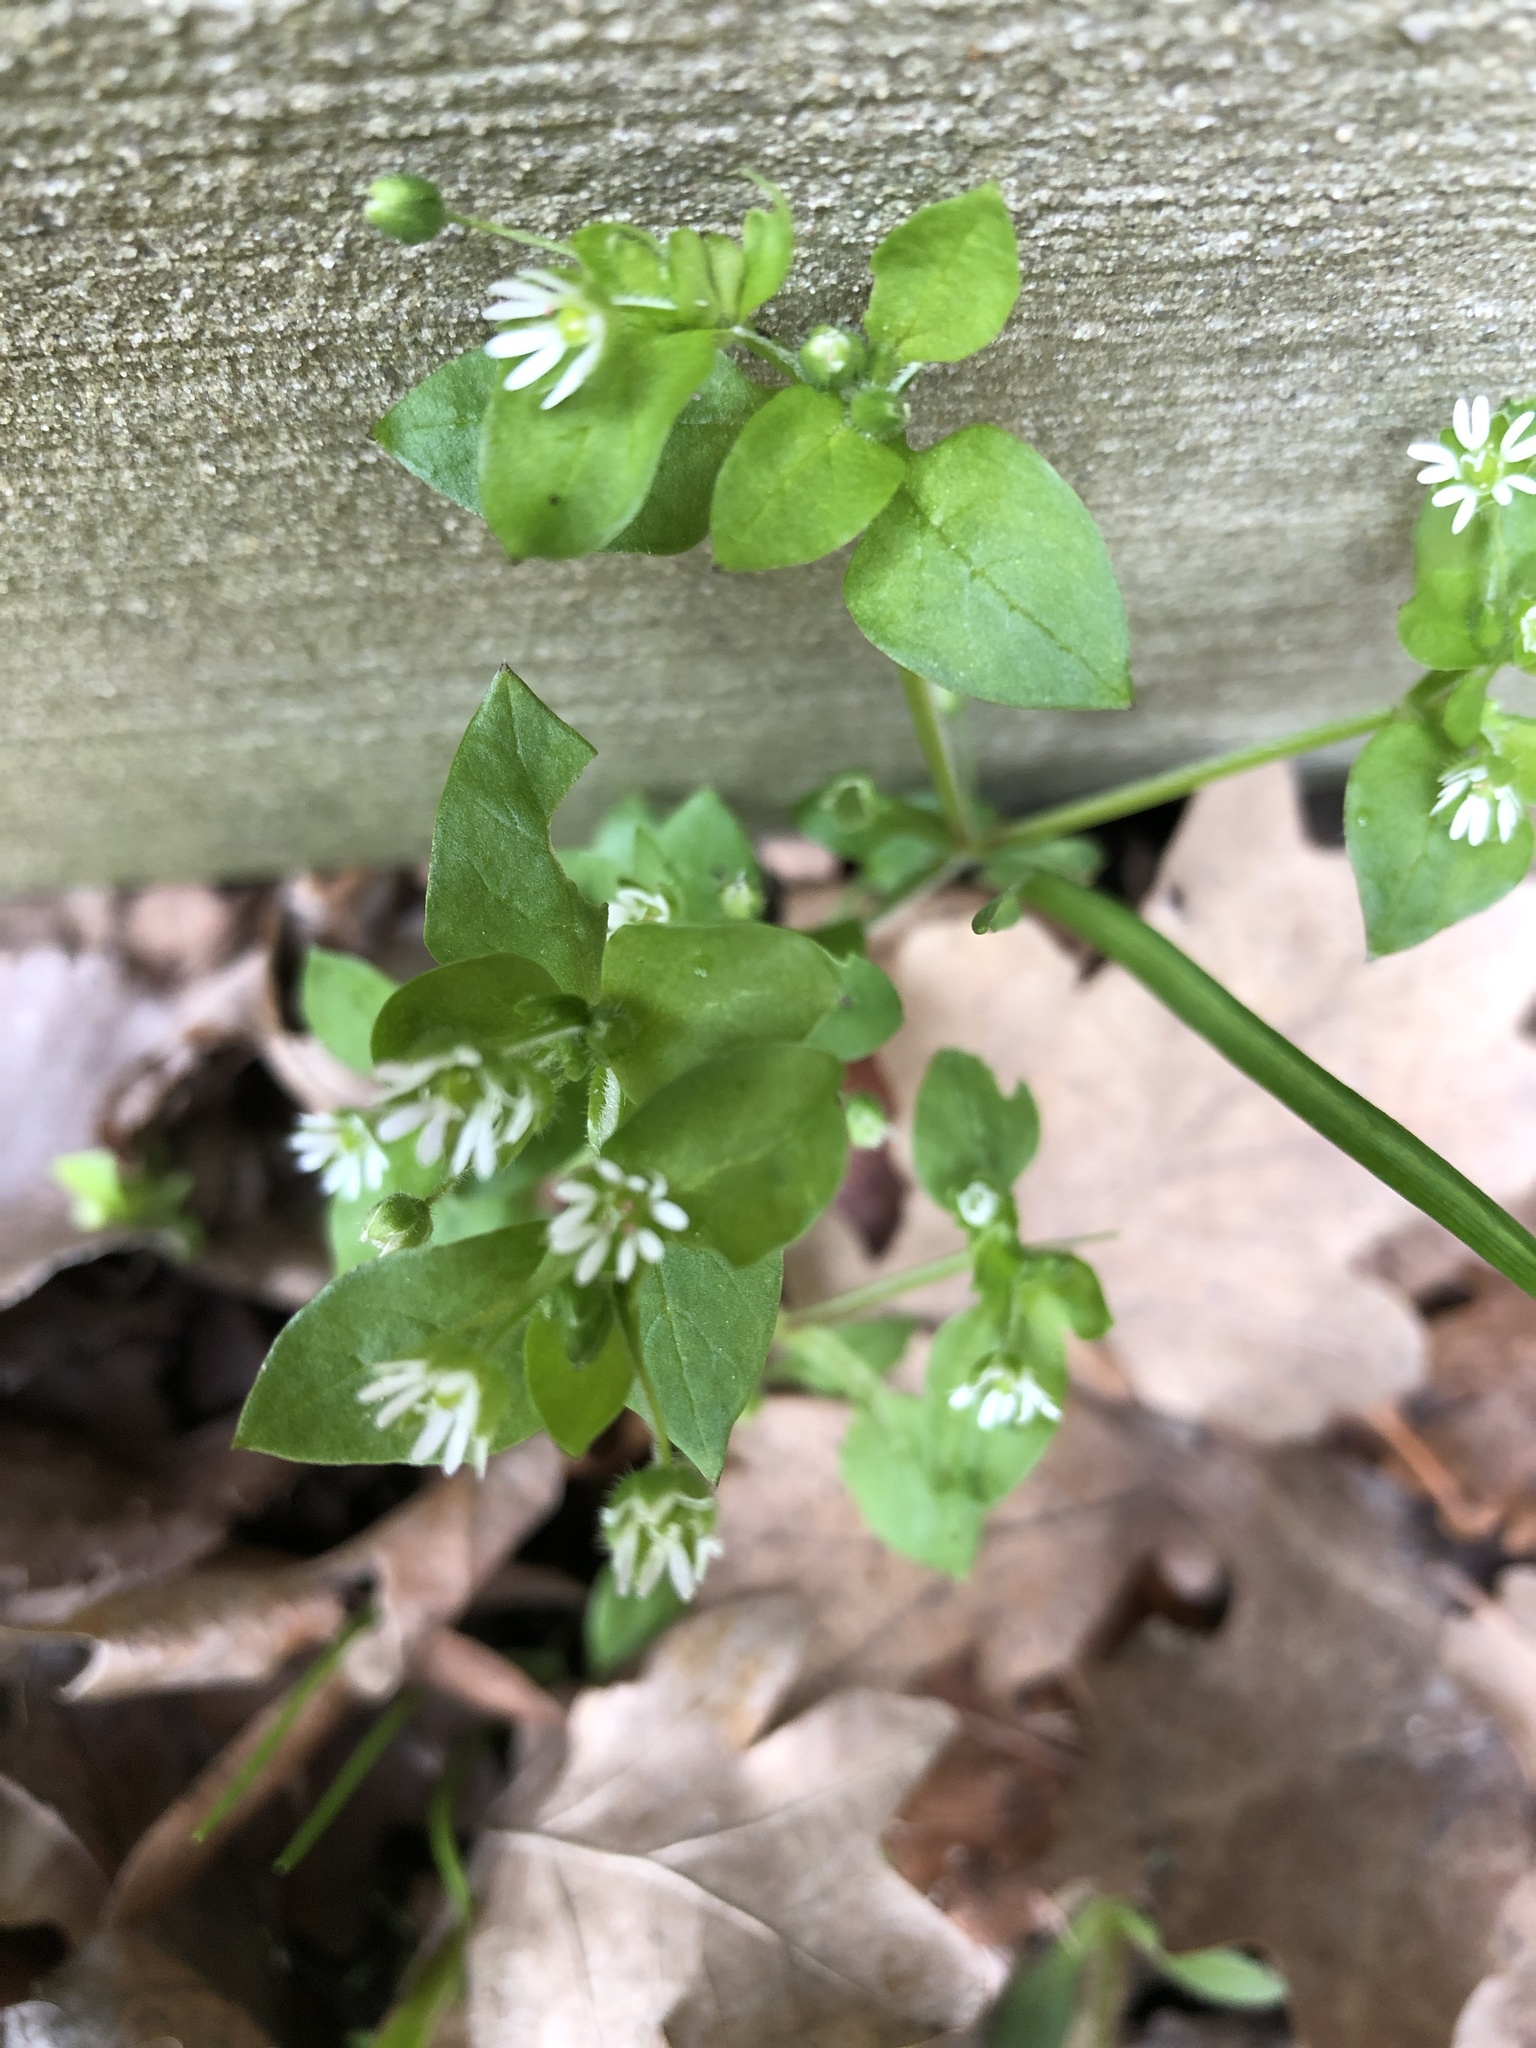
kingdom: Plantae
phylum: Tracheophyta
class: Magnoliopsida
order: Caryophyllales
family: Caryophyllaceae
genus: Stellaria
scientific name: Stellaria media
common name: Common chickweed
